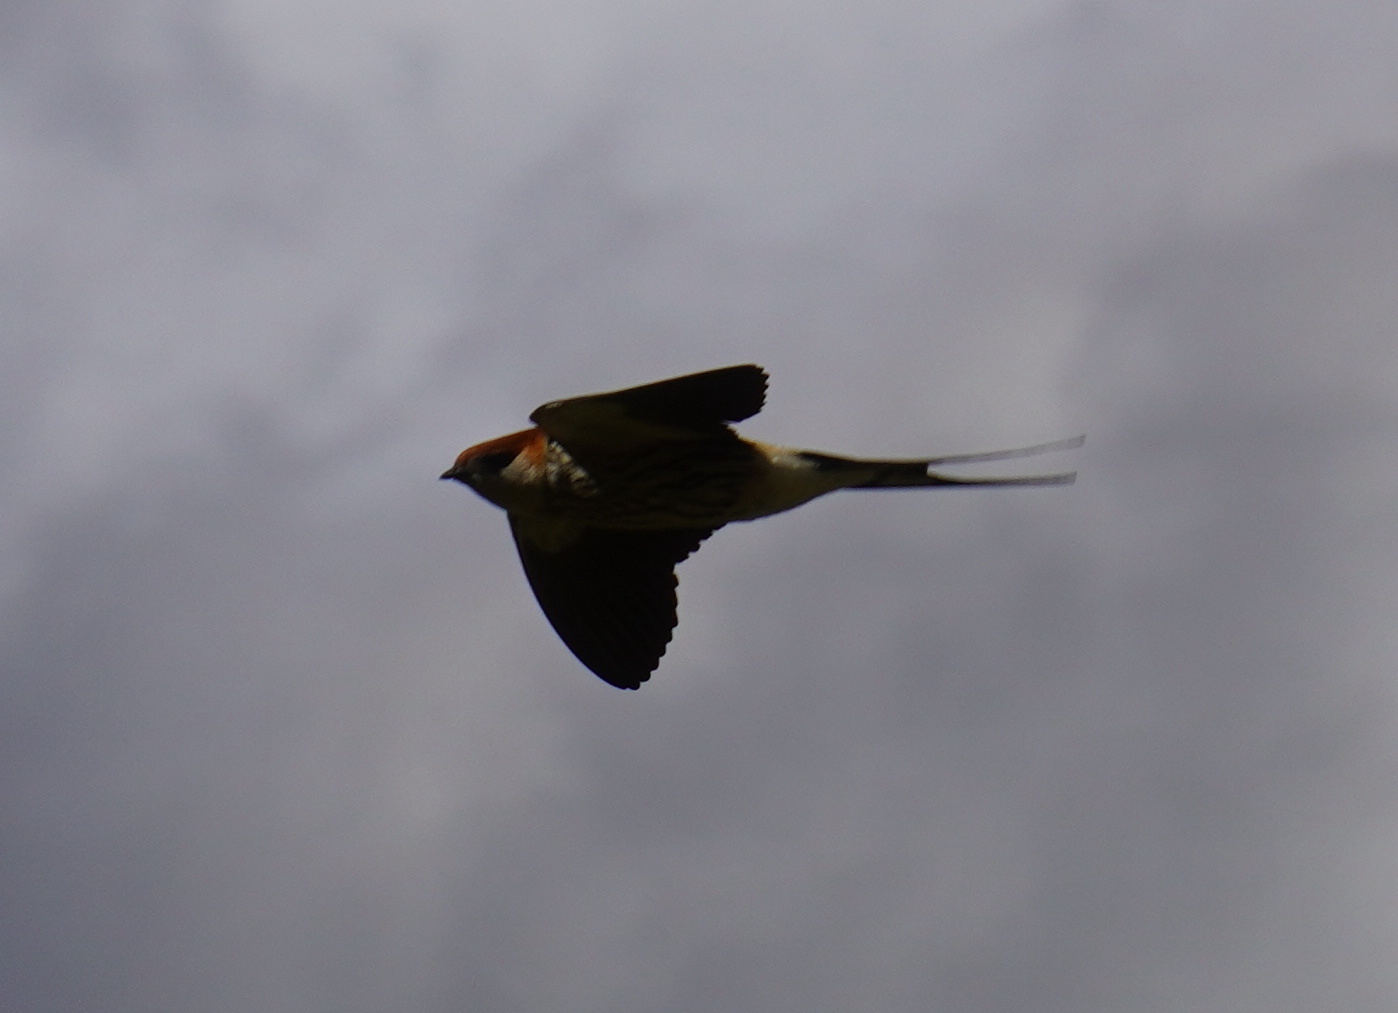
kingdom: Animalia
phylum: Chordata
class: Aves
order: Passeriformes
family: Hirundinidae
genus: Cecropis
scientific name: Cecropis cucullata
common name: Greater striped-swallow
